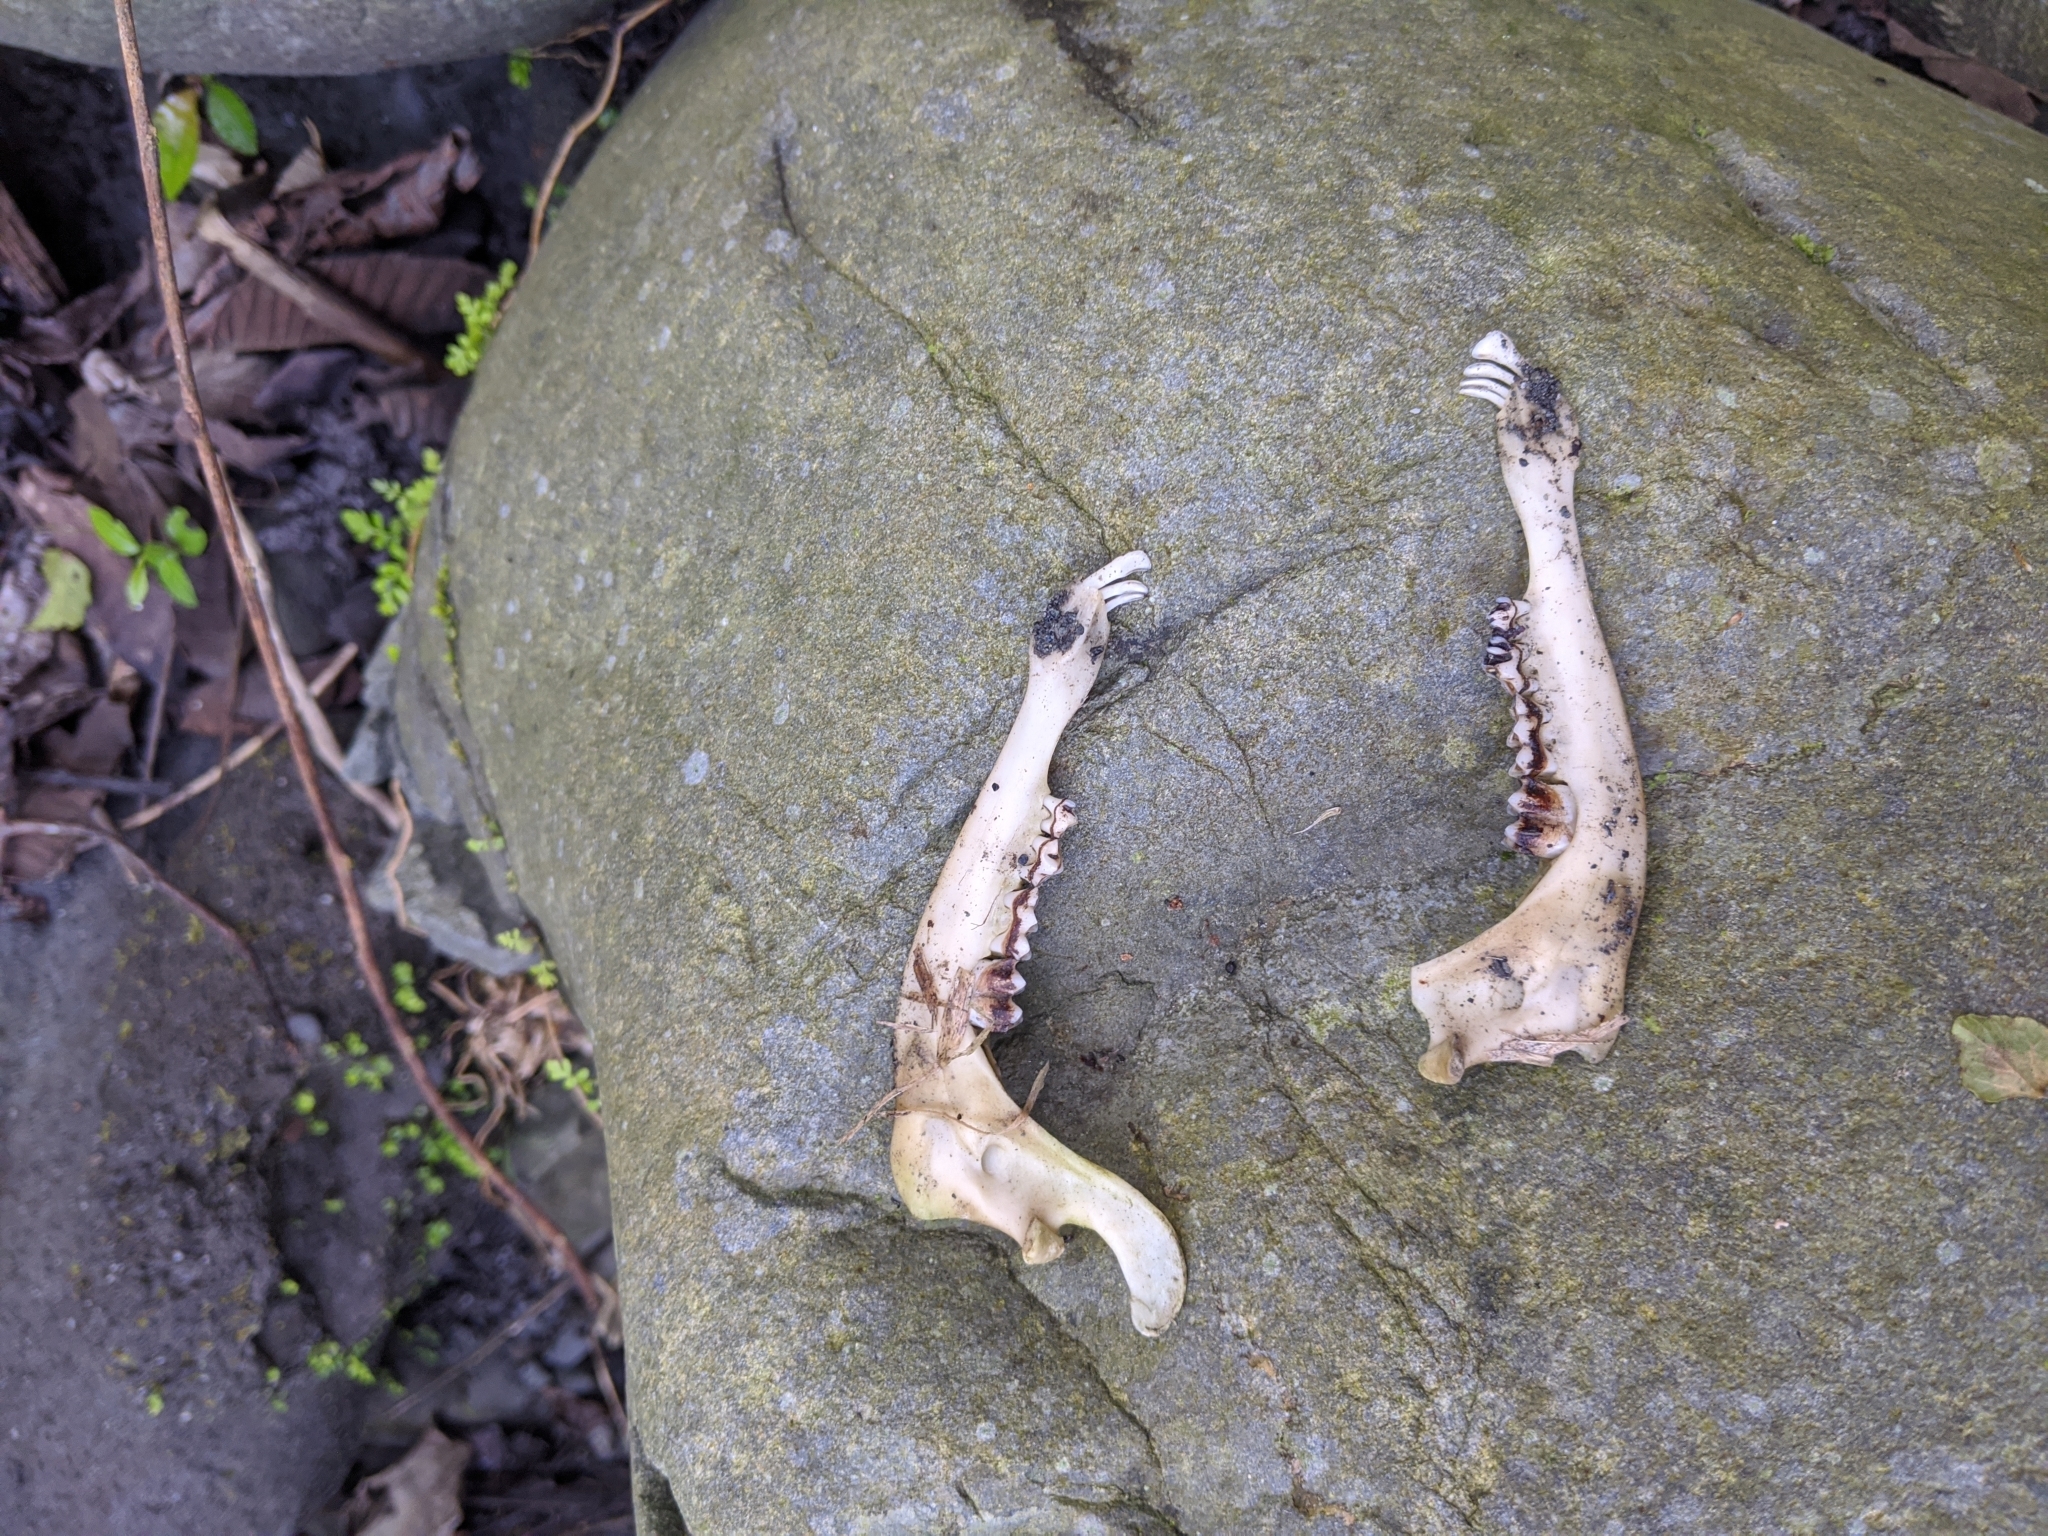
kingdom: Animalia
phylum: Chordata
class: Mammalia
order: Artiodactyla
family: Cervidae
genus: Muntiacus
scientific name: Muntiacus reevesi
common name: Reeves' muntjac
